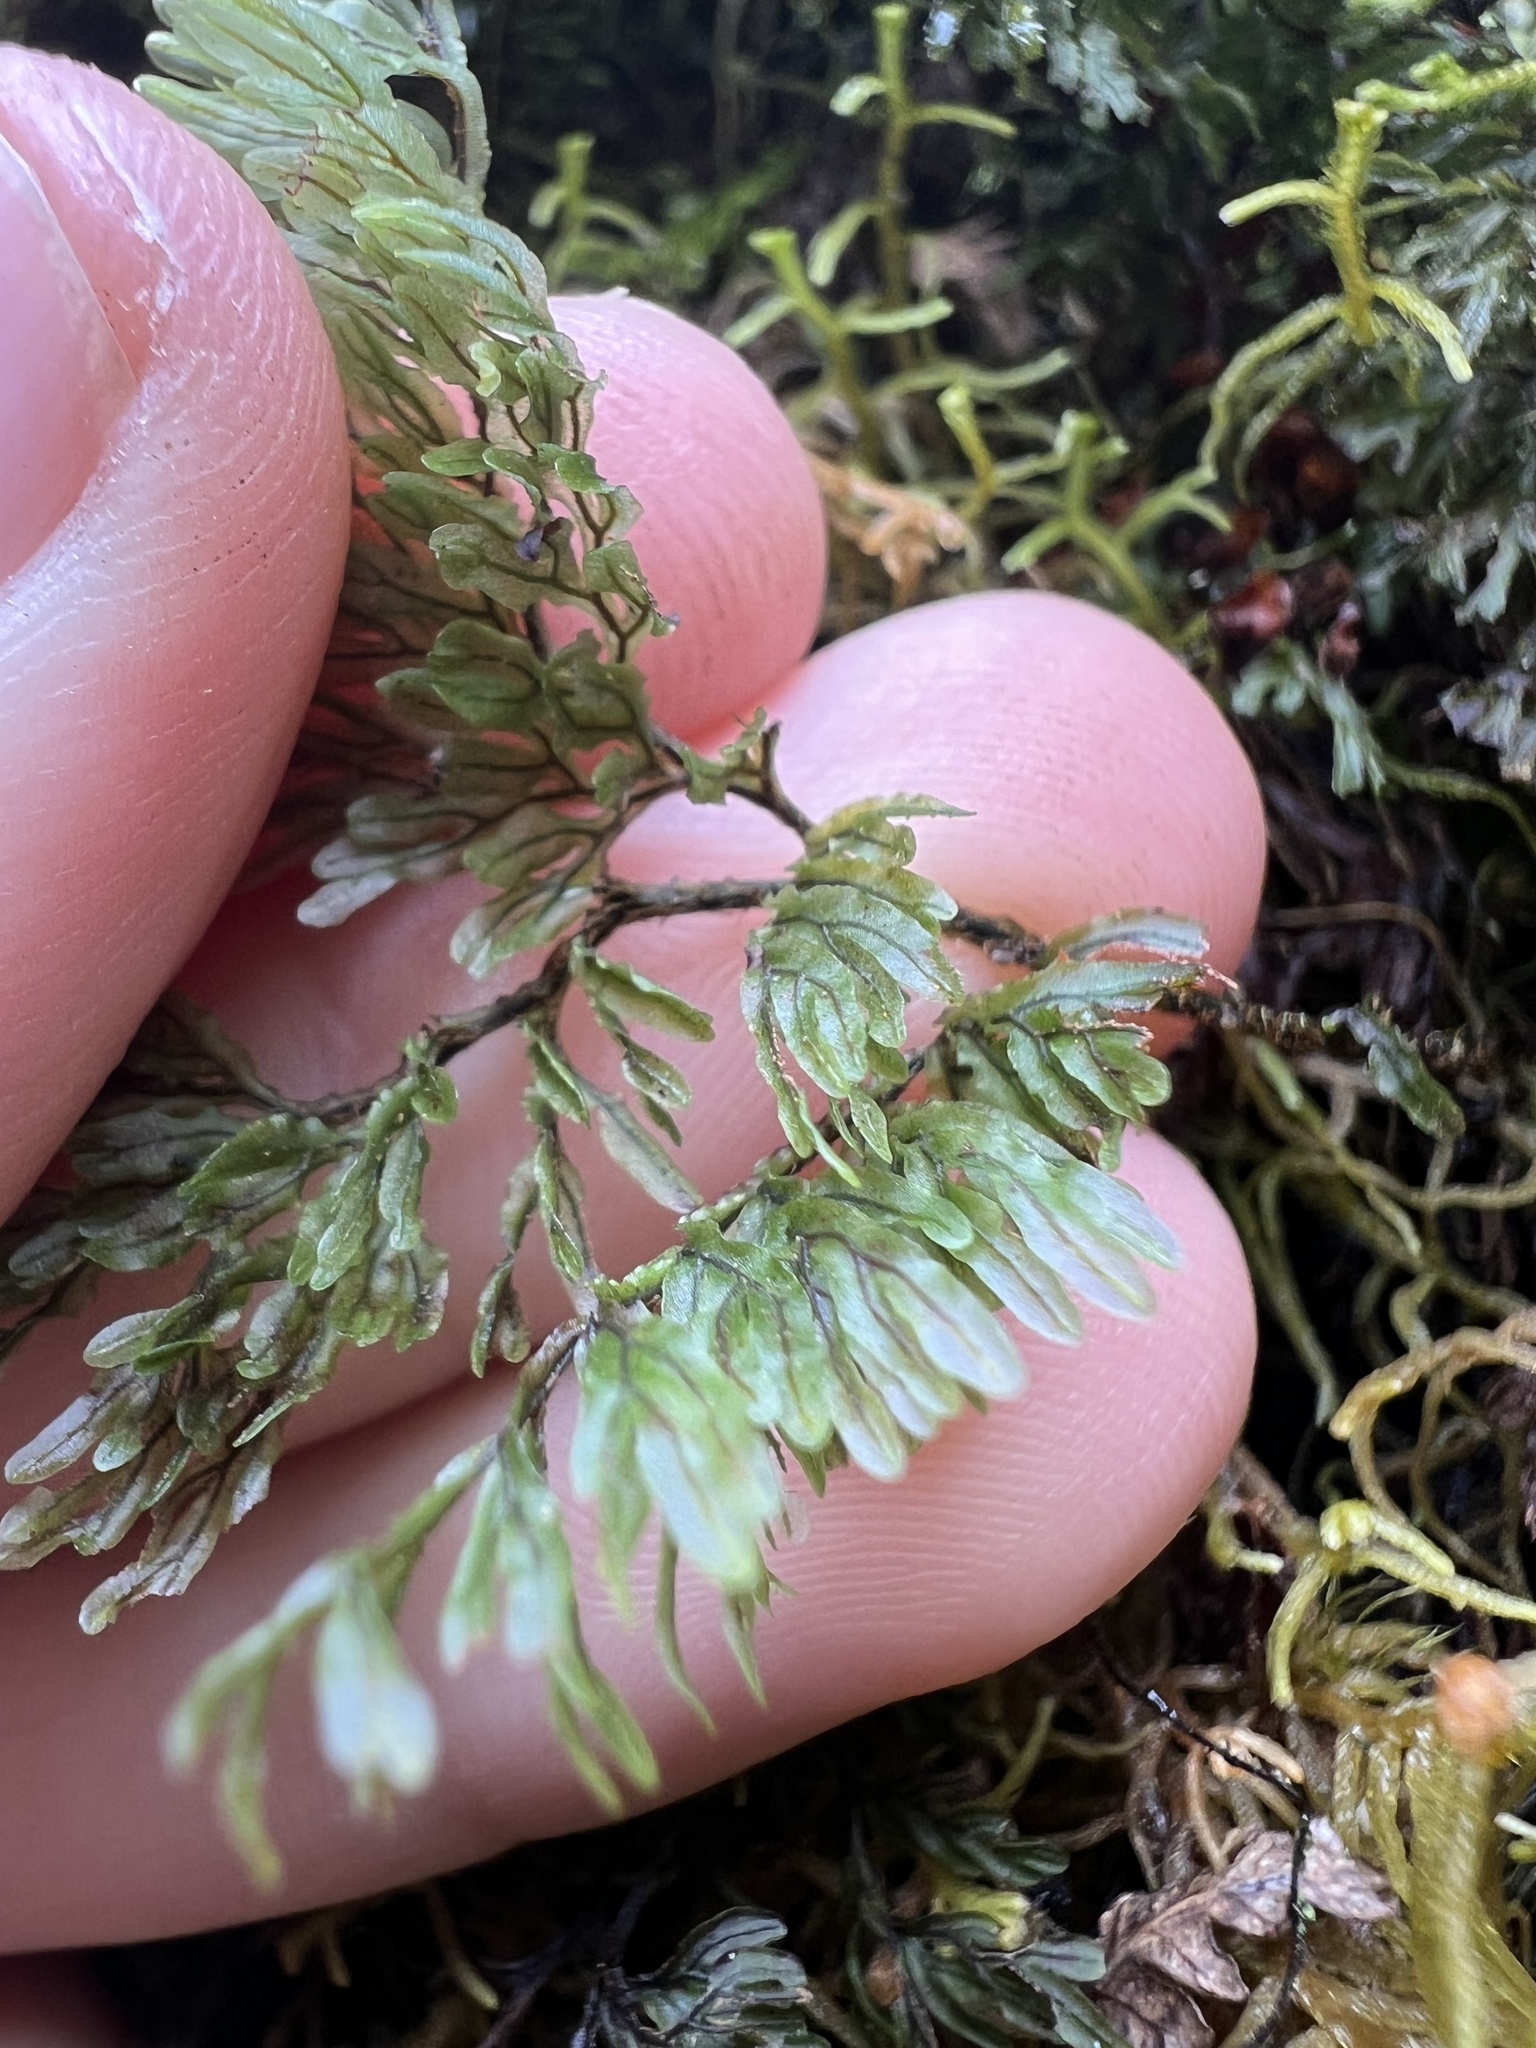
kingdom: Plantae
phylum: Tracheophyta
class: Polypodiopsida
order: Hymenophyllales
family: Hymenophyllaceae
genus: Hymenophyllum
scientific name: Hymenophyllum villosum
